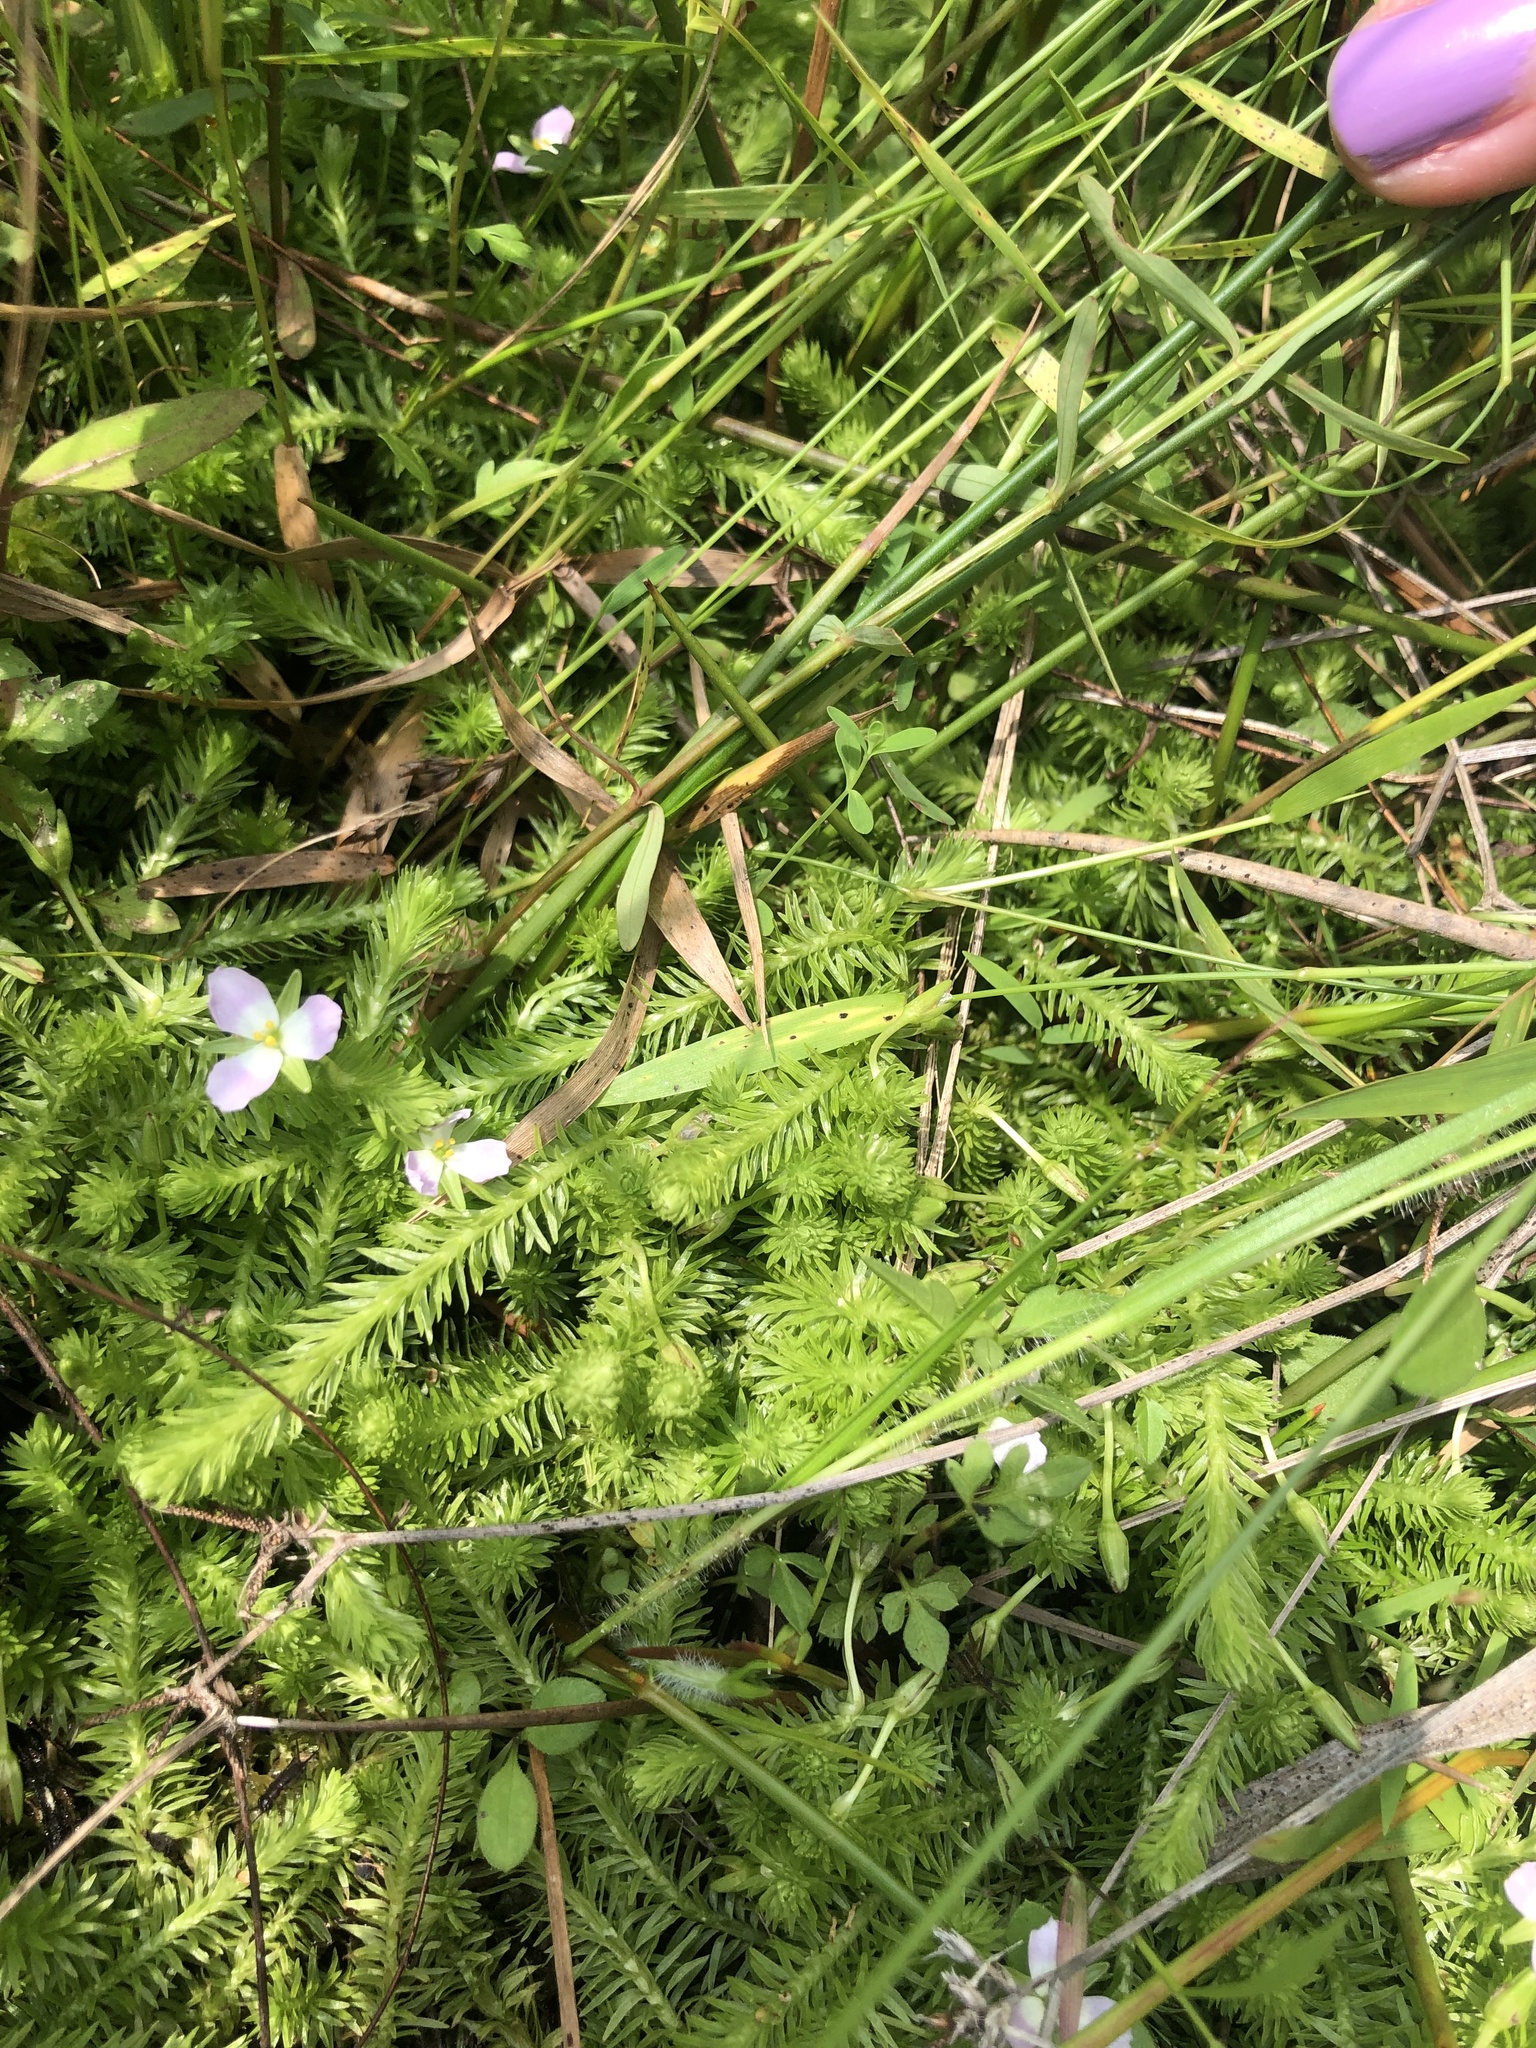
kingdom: Plantae
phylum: Tracheophyta
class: Liliopsida
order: Poales
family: Mayacaceae
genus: Mayaca
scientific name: Mayaca fluviatilis
